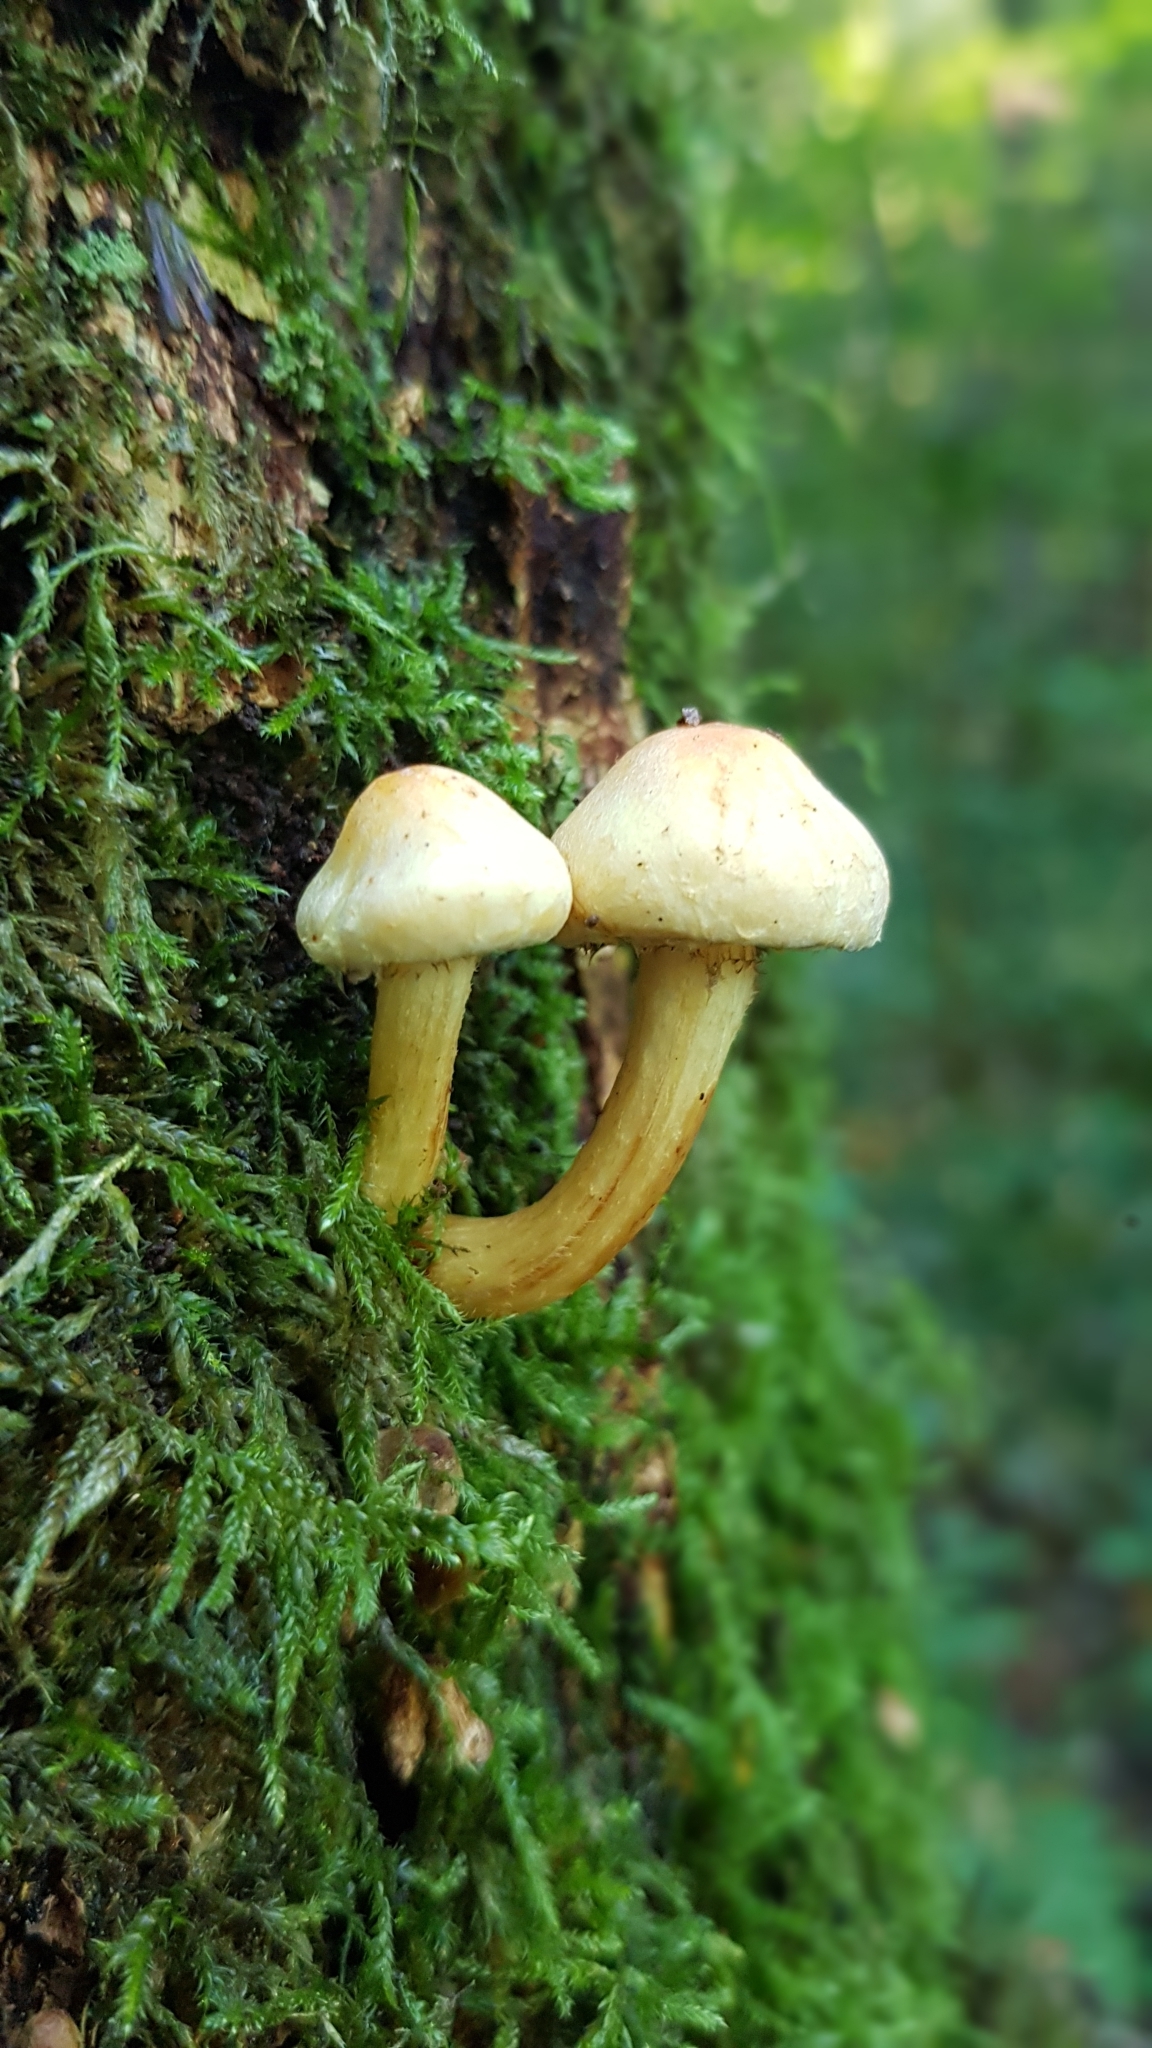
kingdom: Fungi
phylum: Basidiomycota
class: Agaricomycetes
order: Agaricales
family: Strophariaceae
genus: Hypholoma
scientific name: Hypholoma fasciculare
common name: Sulphur tuft
